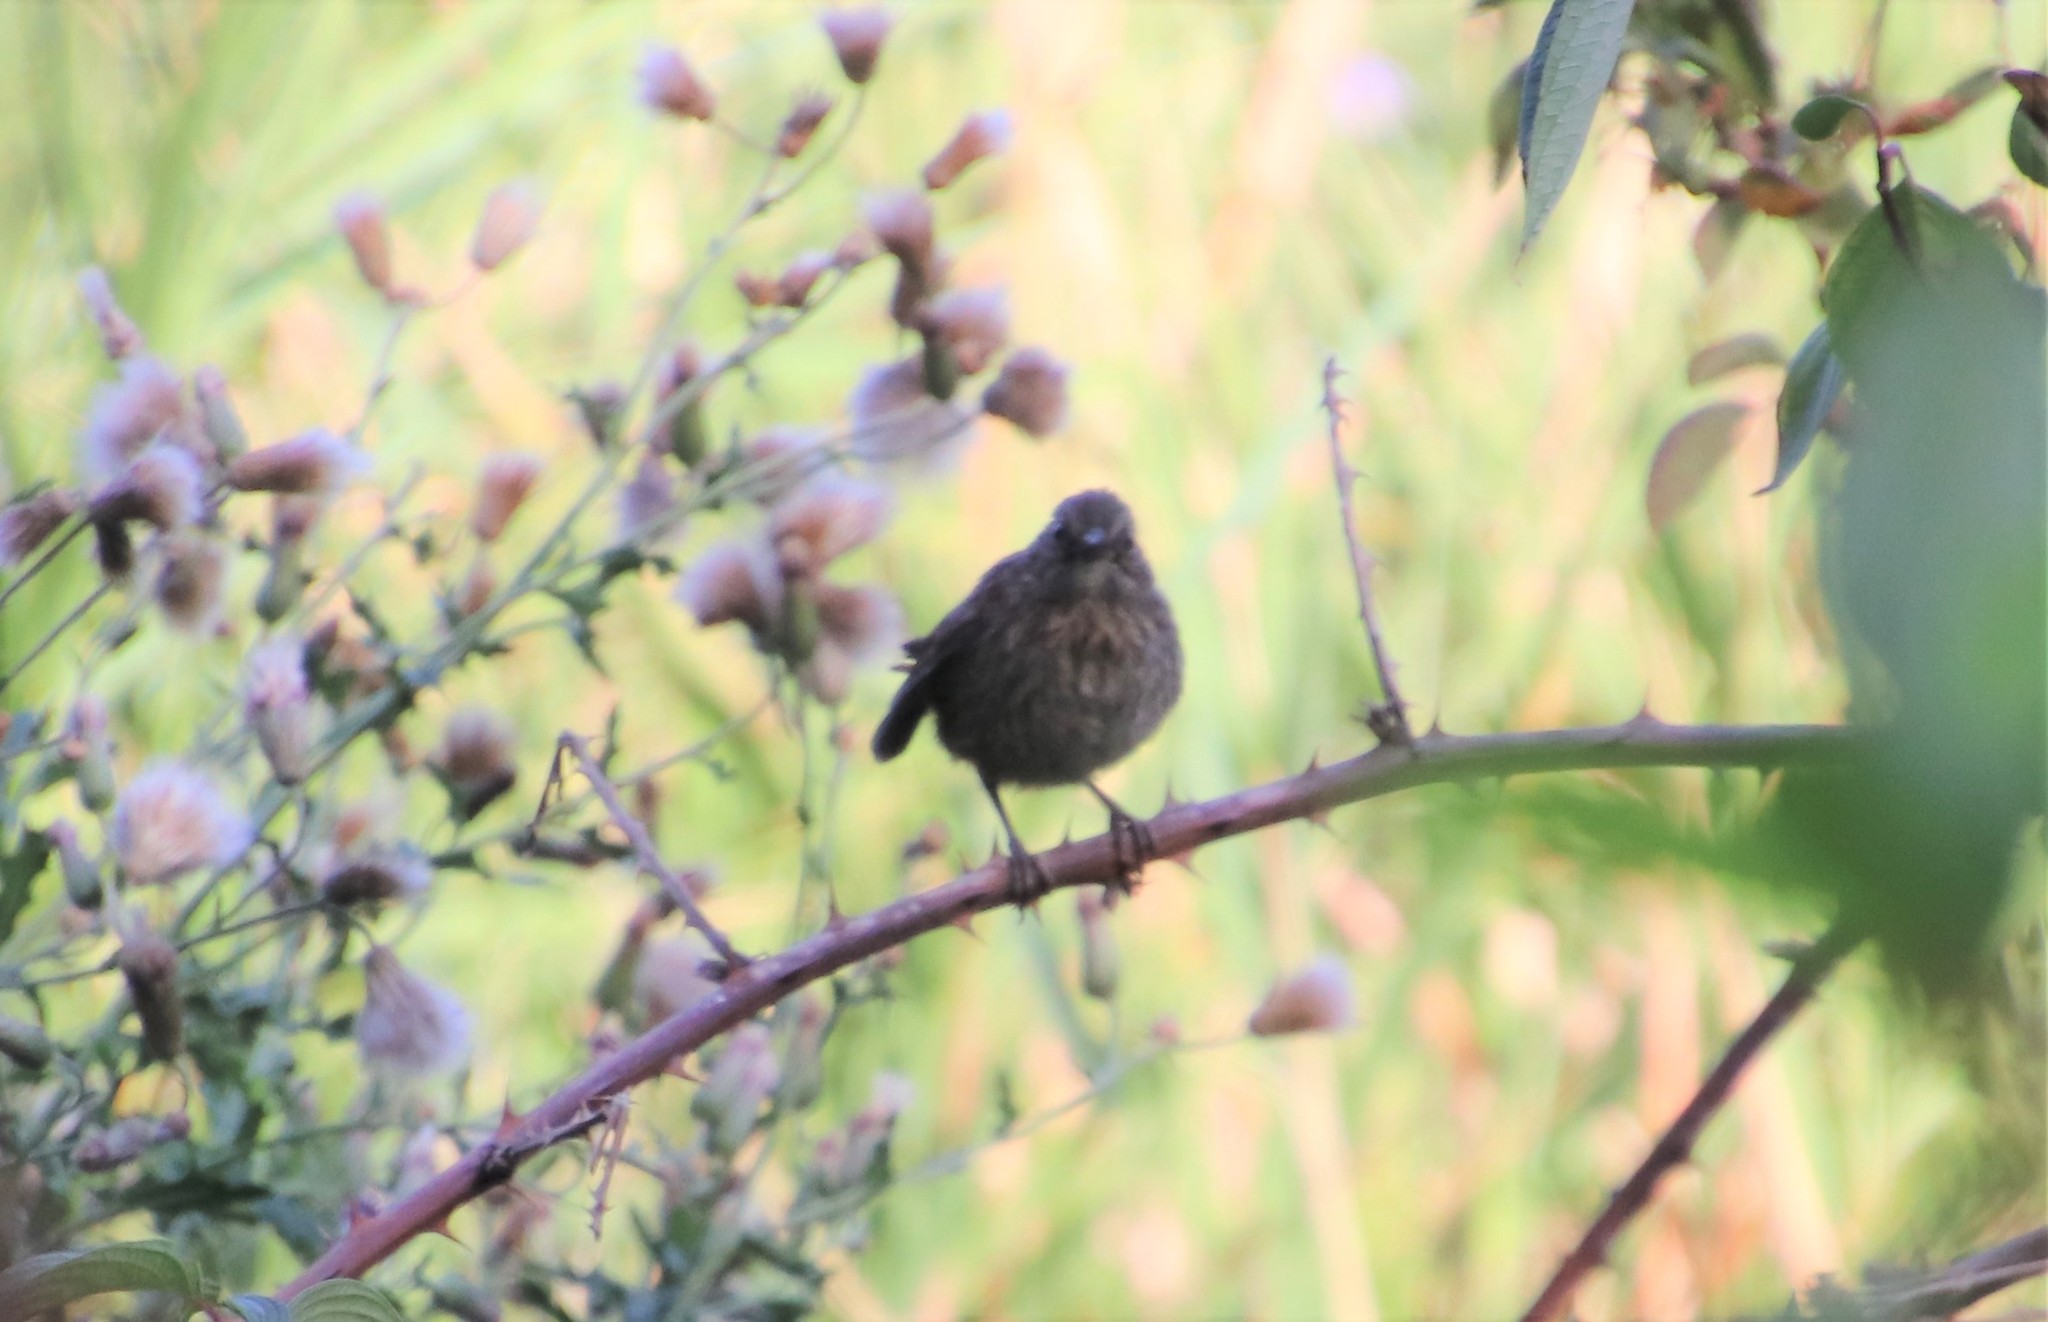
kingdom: Animalia
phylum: Chordata
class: Aves
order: Passeriformes
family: Passerellidae
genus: Melospiza
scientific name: Melospiza melodia
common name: Song sparrow
